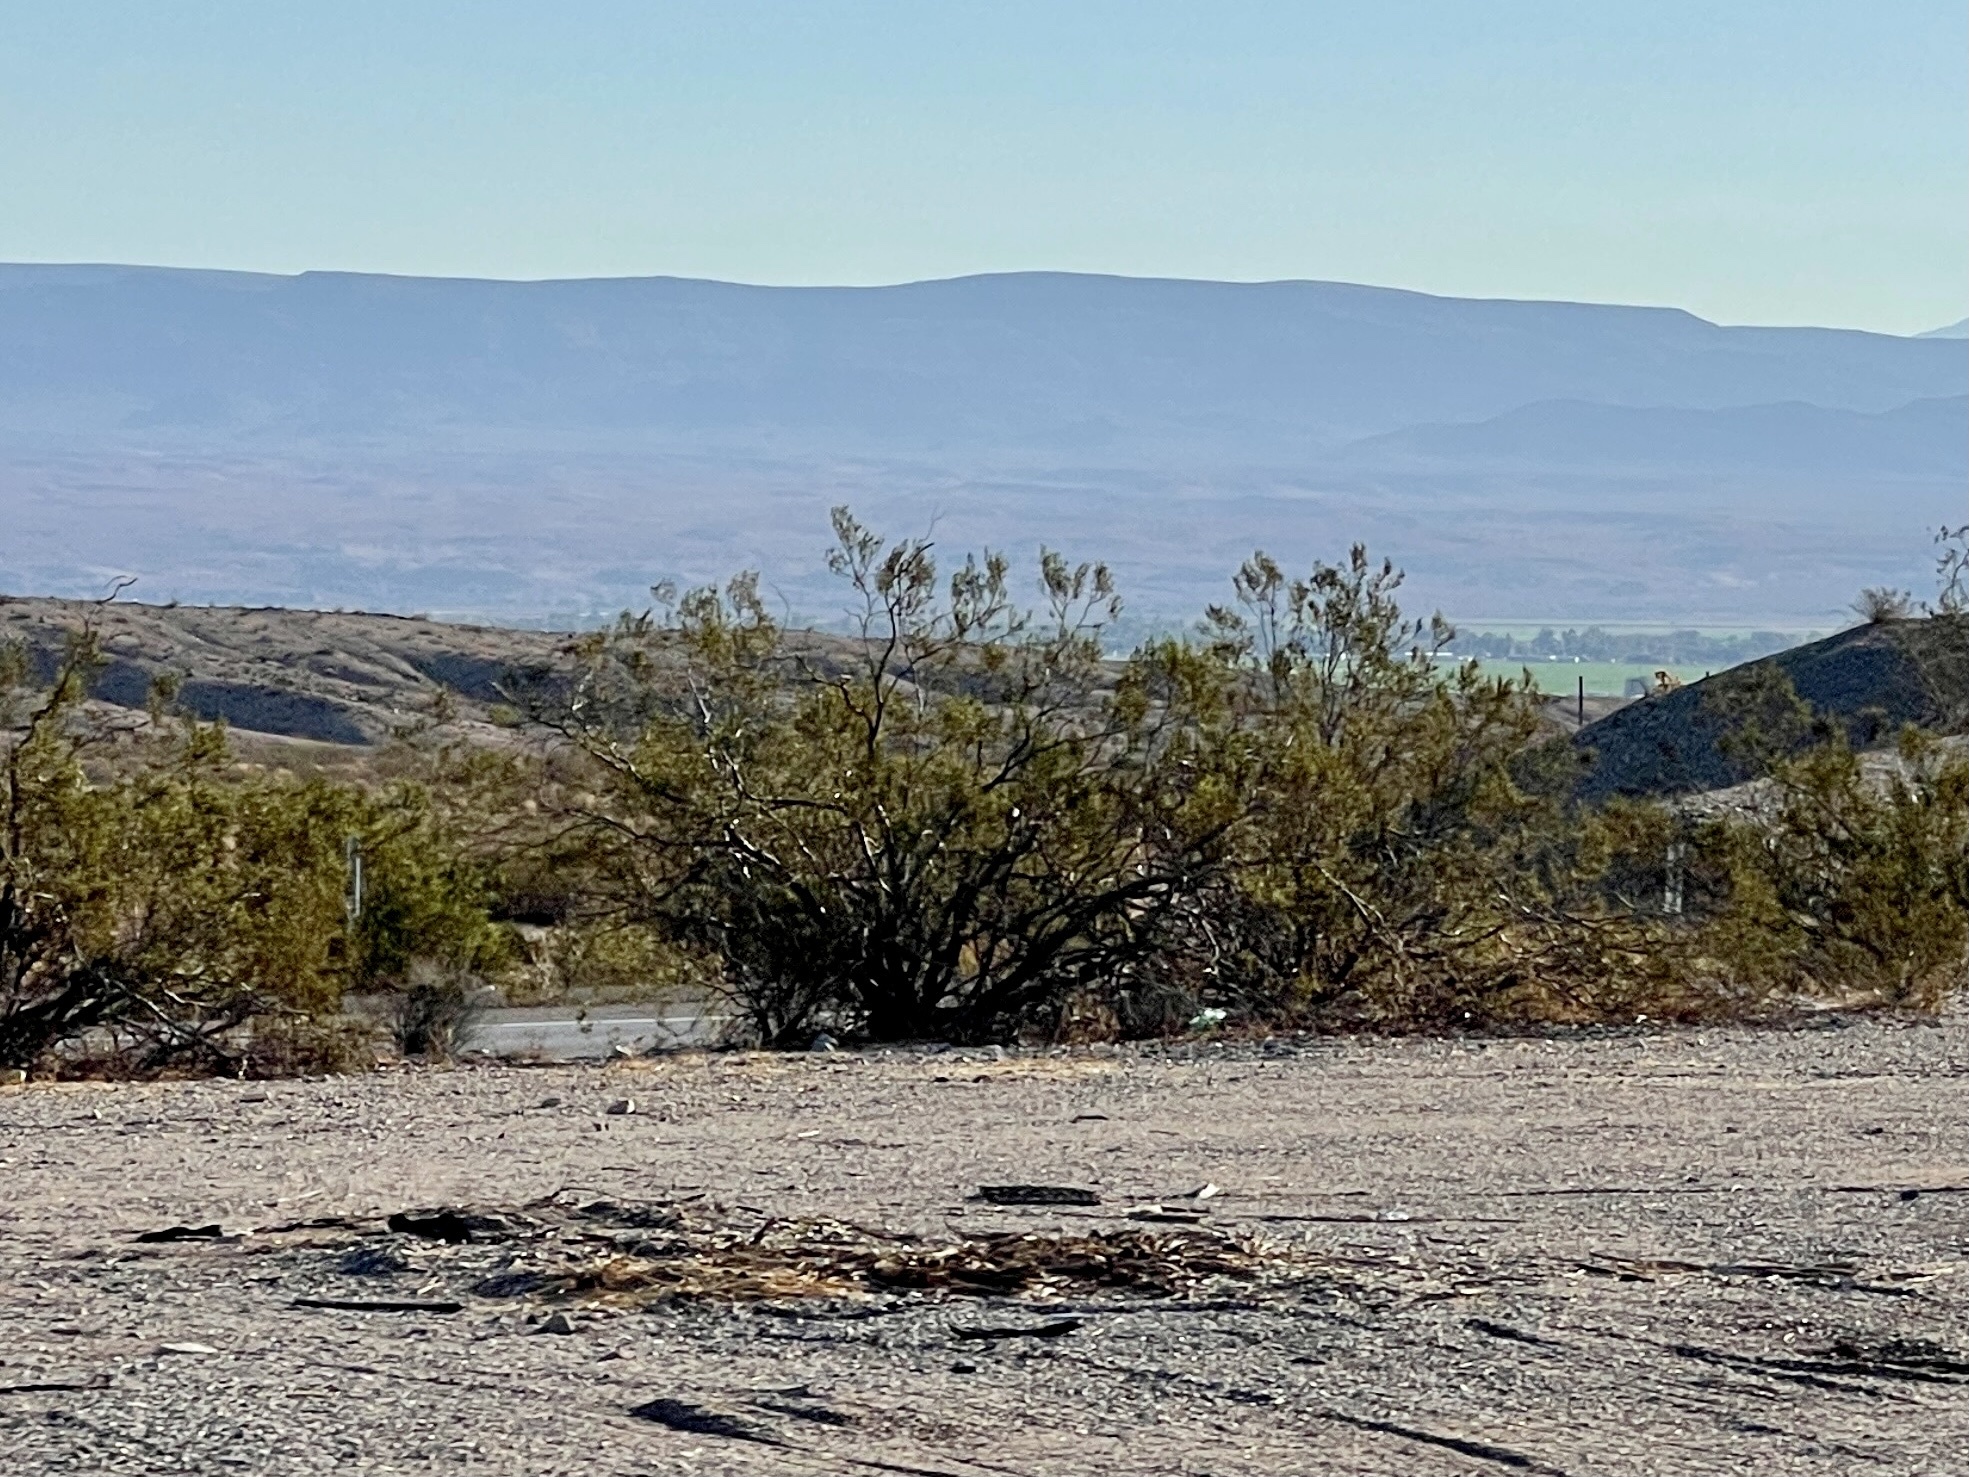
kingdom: Plantae
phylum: Tracheophyta
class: Magnoliopsida
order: Zygophyllales
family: Zygophyllaceae
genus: Larrea
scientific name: Larrea tridentata
